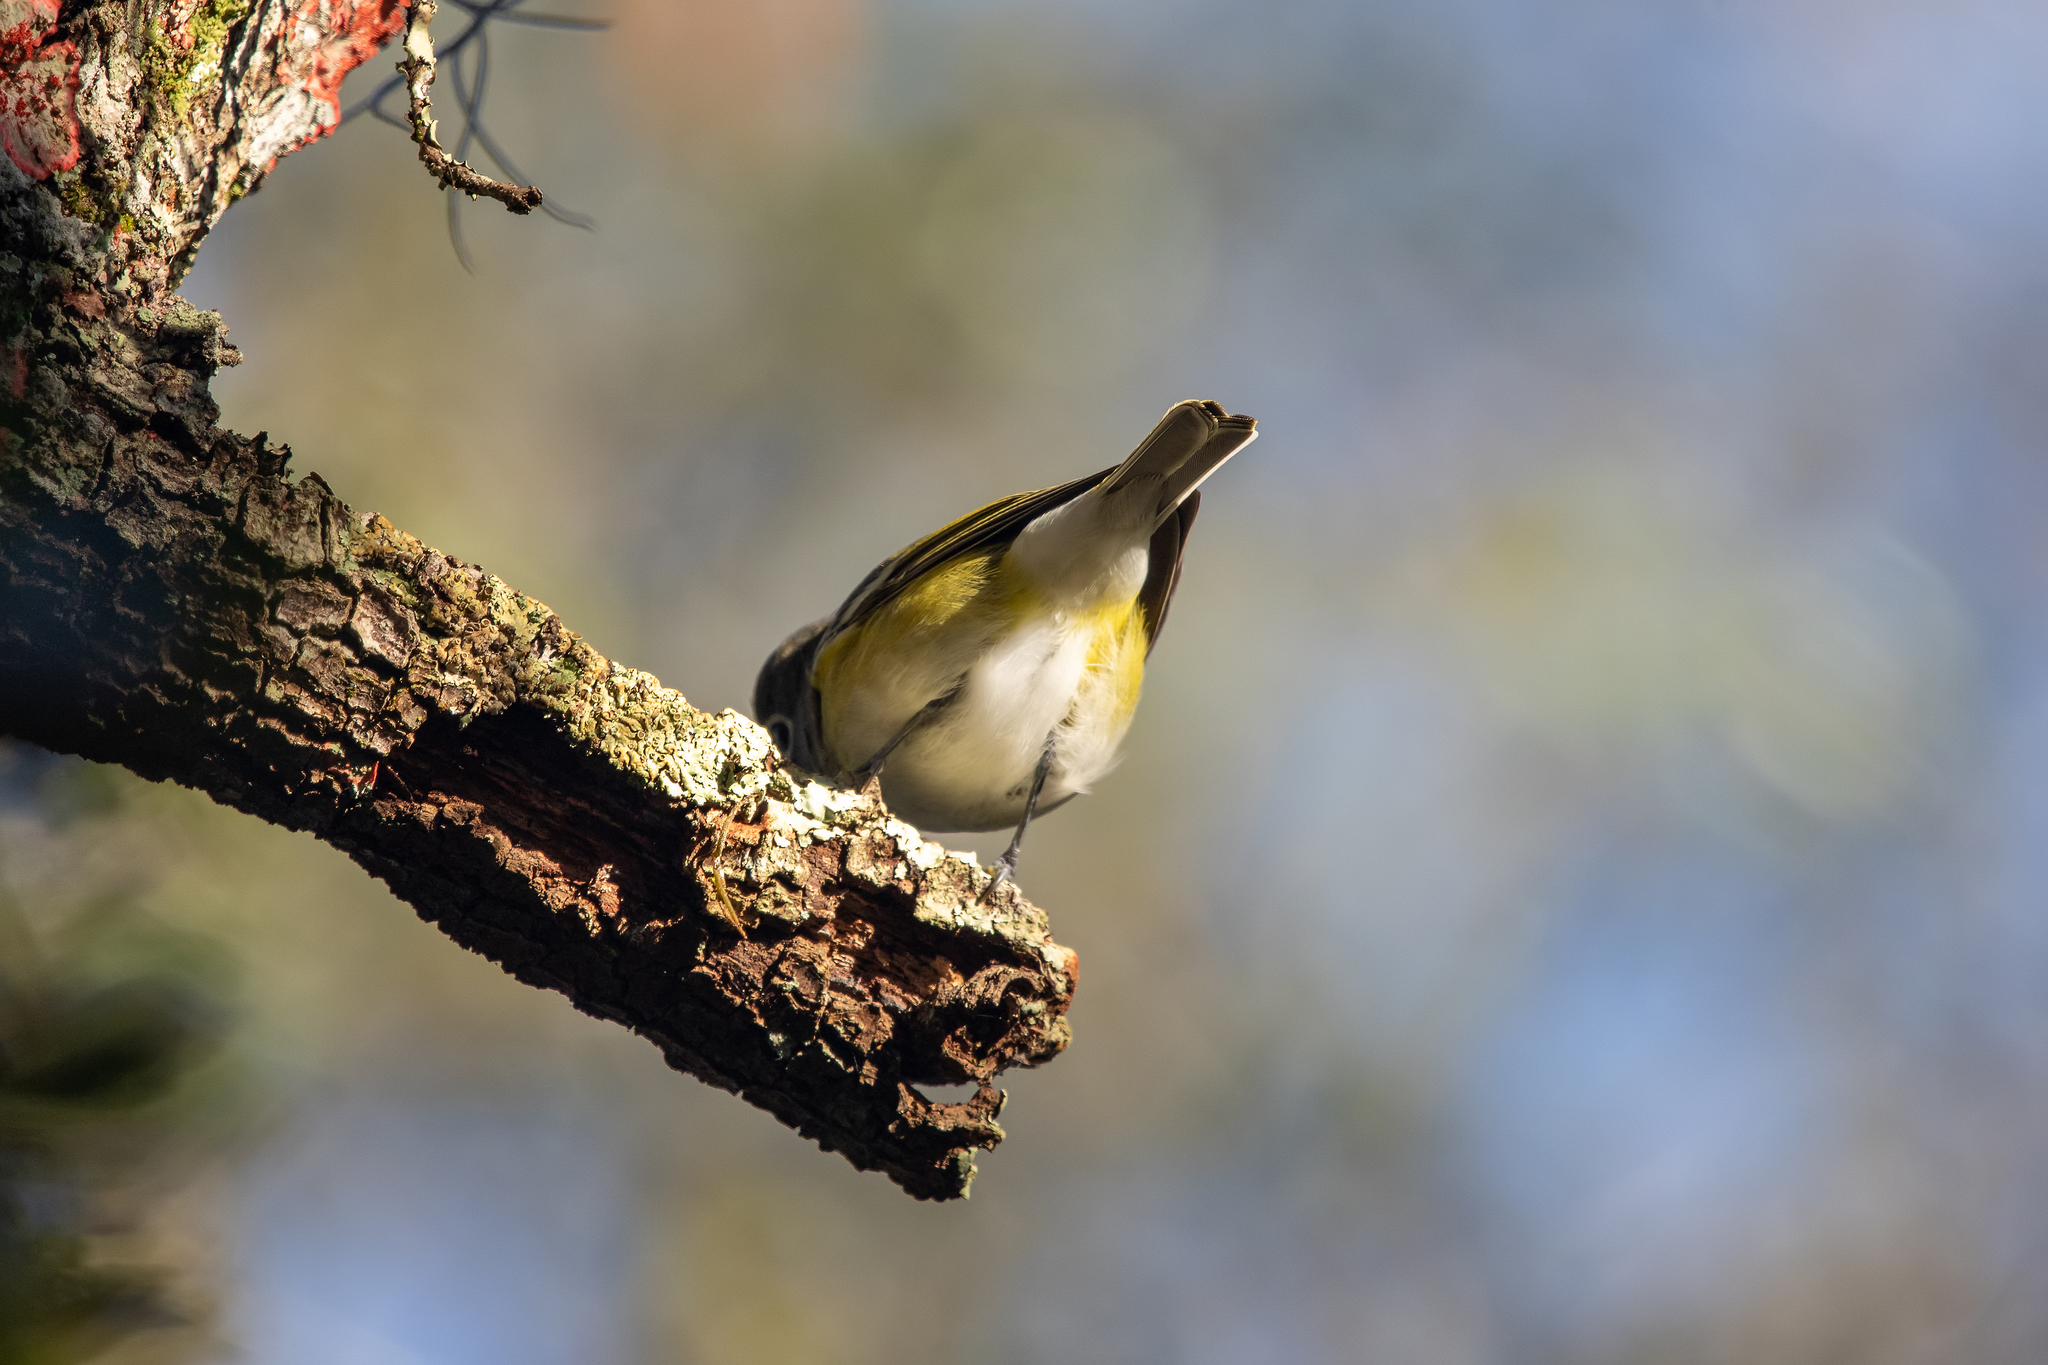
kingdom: Animalia
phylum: Chordata
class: Aves
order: Passeriformes
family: Vireonidae
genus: Vireo
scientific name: Vireo solitarius
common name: Blue-headed vireo
